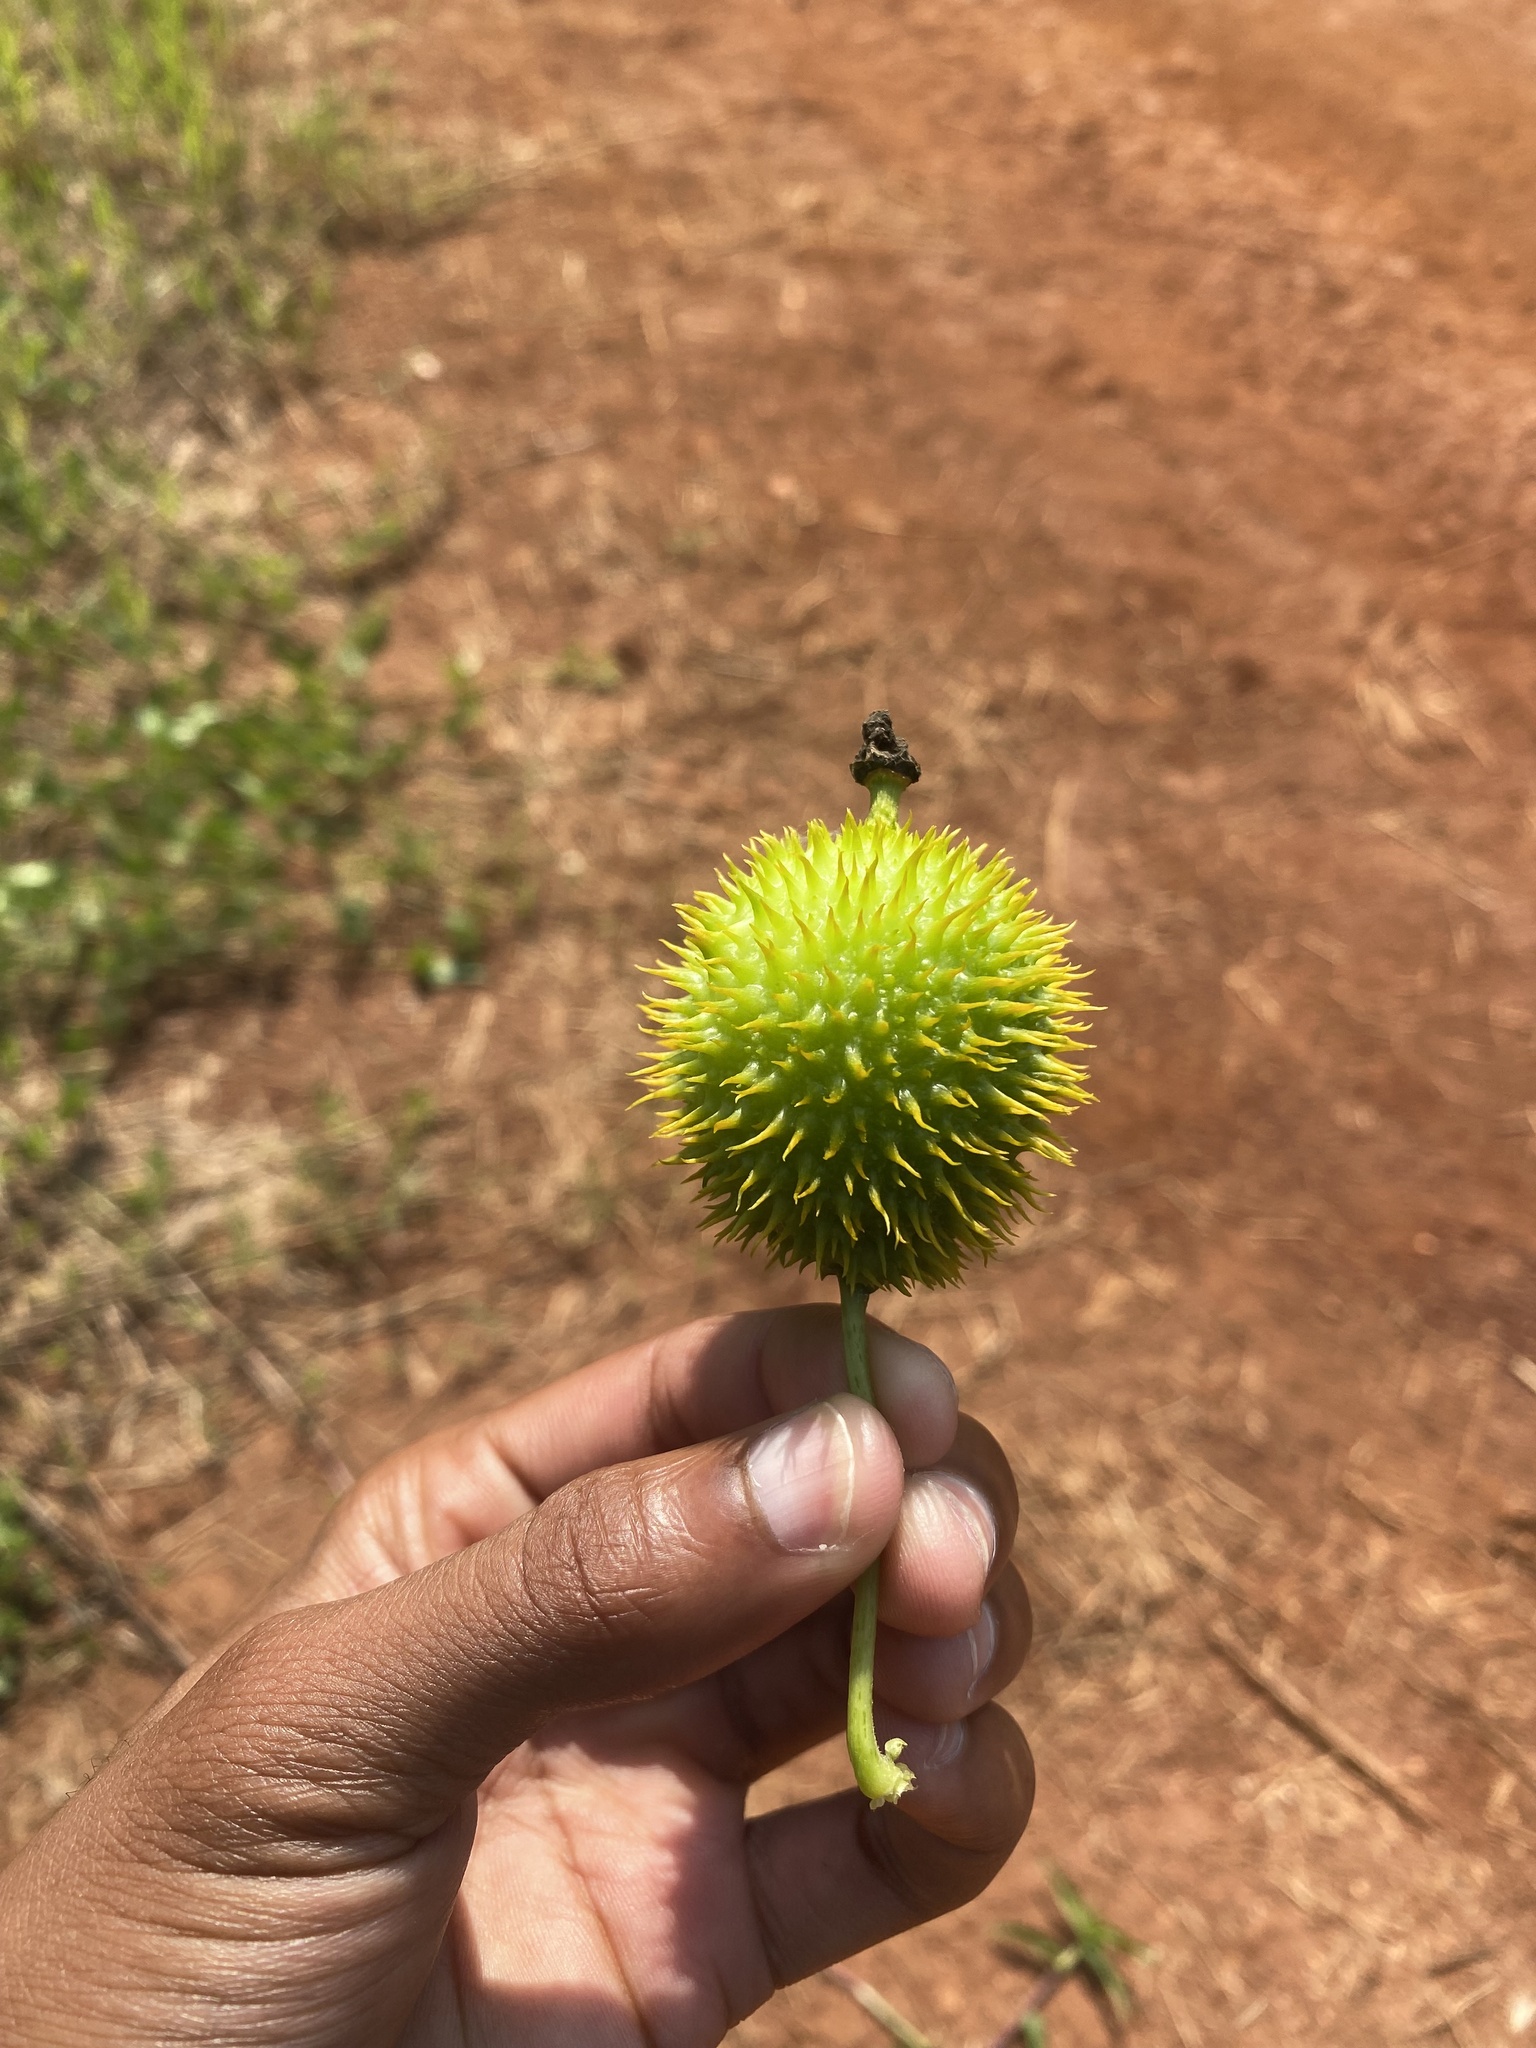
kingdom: Plantae
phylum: Tracheophyta
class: Magnoliopsida
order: Cucurbitales
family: Cucurbitaceae
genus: Momordica
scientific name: Momordica foetida
